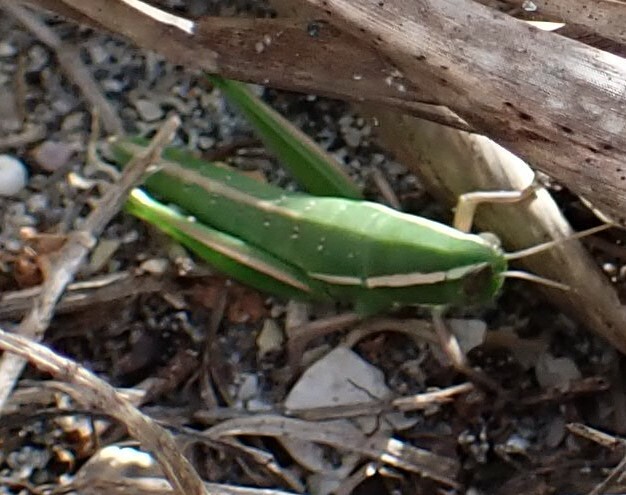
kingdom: Animalia
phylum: Arthropoda
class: Insecta
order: Orthoptera
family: Acrididae
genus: Aptenopedes
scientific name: Aptenopedes sphenarioides
